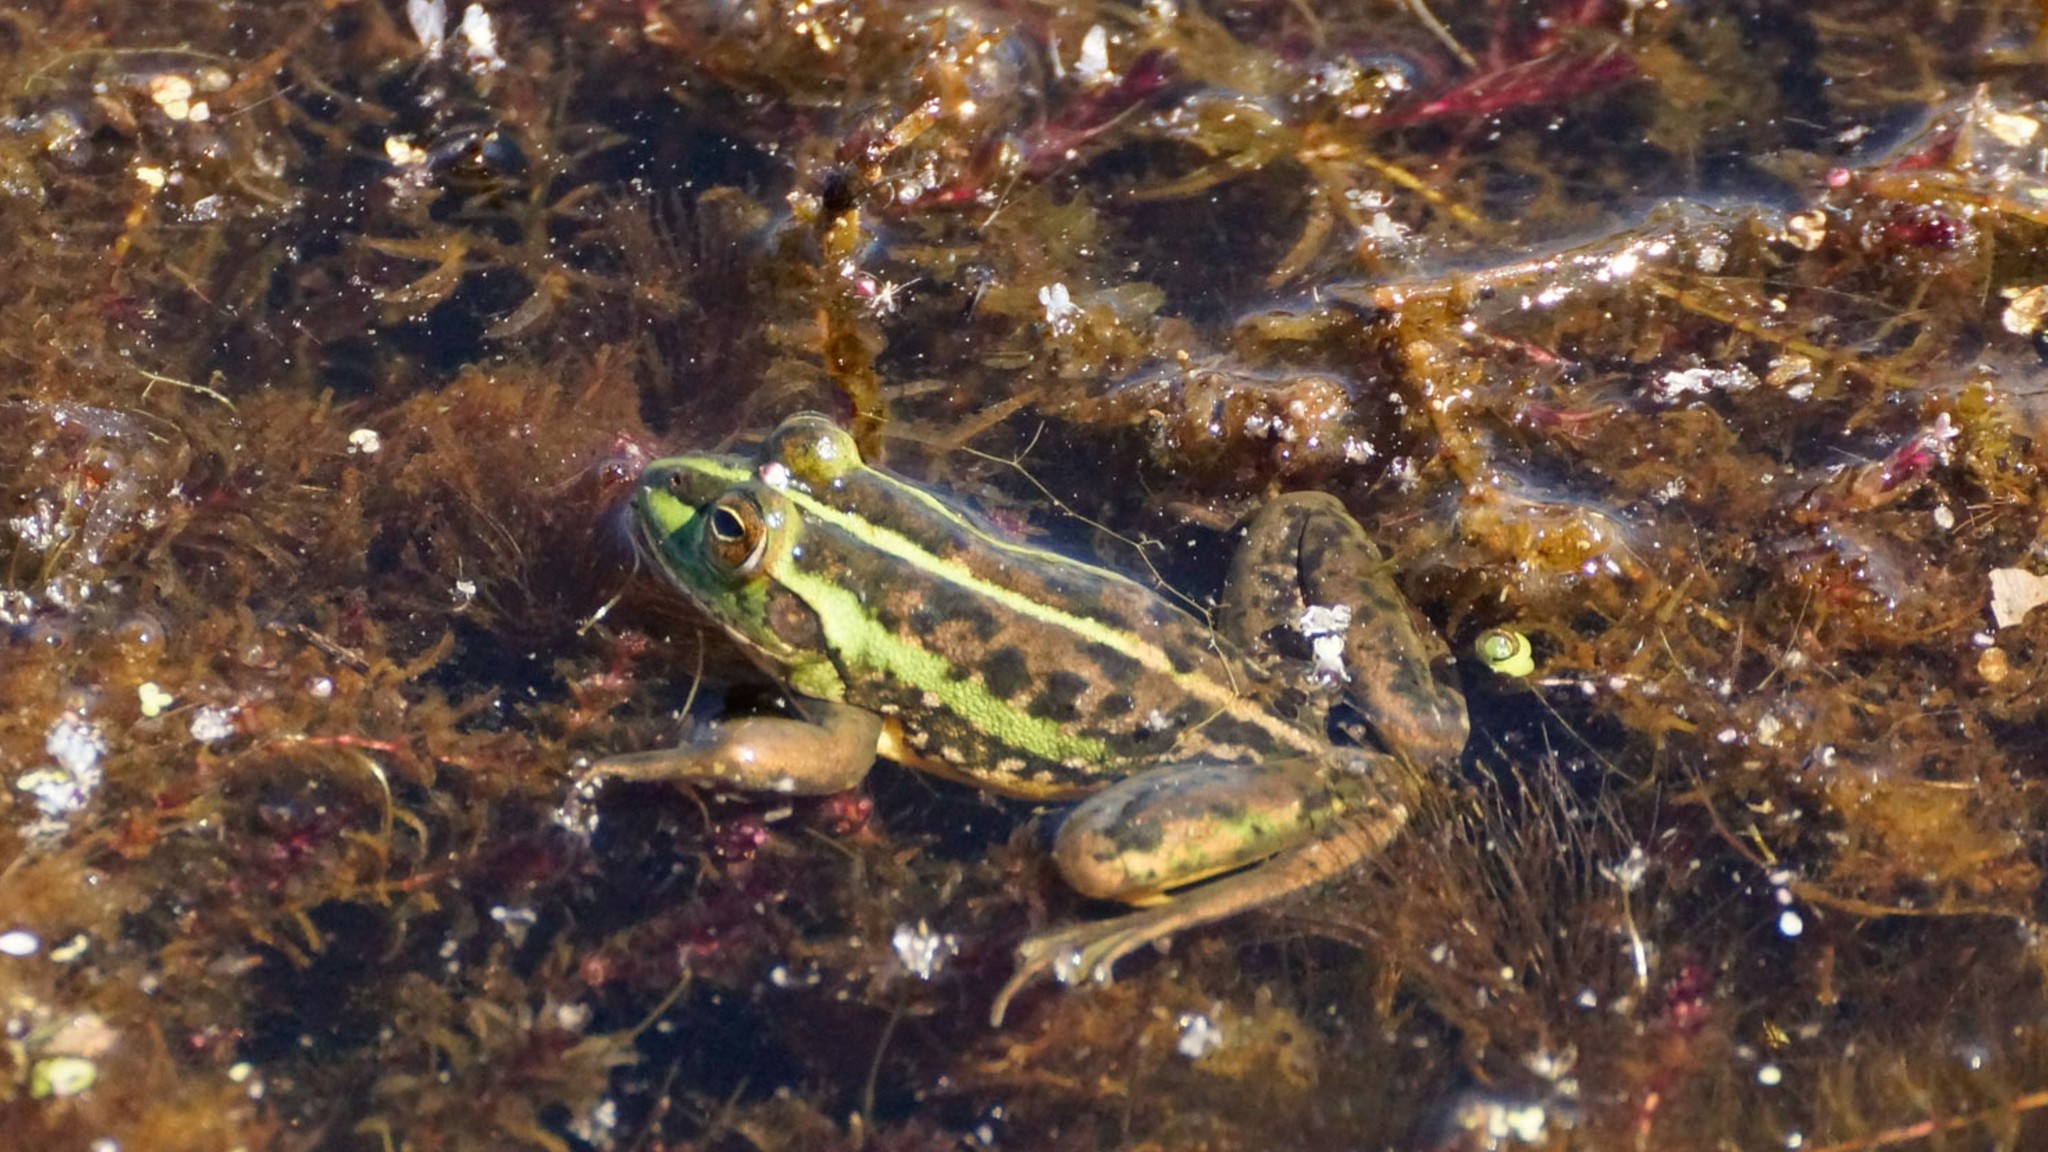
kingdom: Animalia
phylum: Chordata
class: Amphibia
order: Anura
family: Pelodryadidae
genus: Ranoidea
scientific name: Ranoidea dahlii
